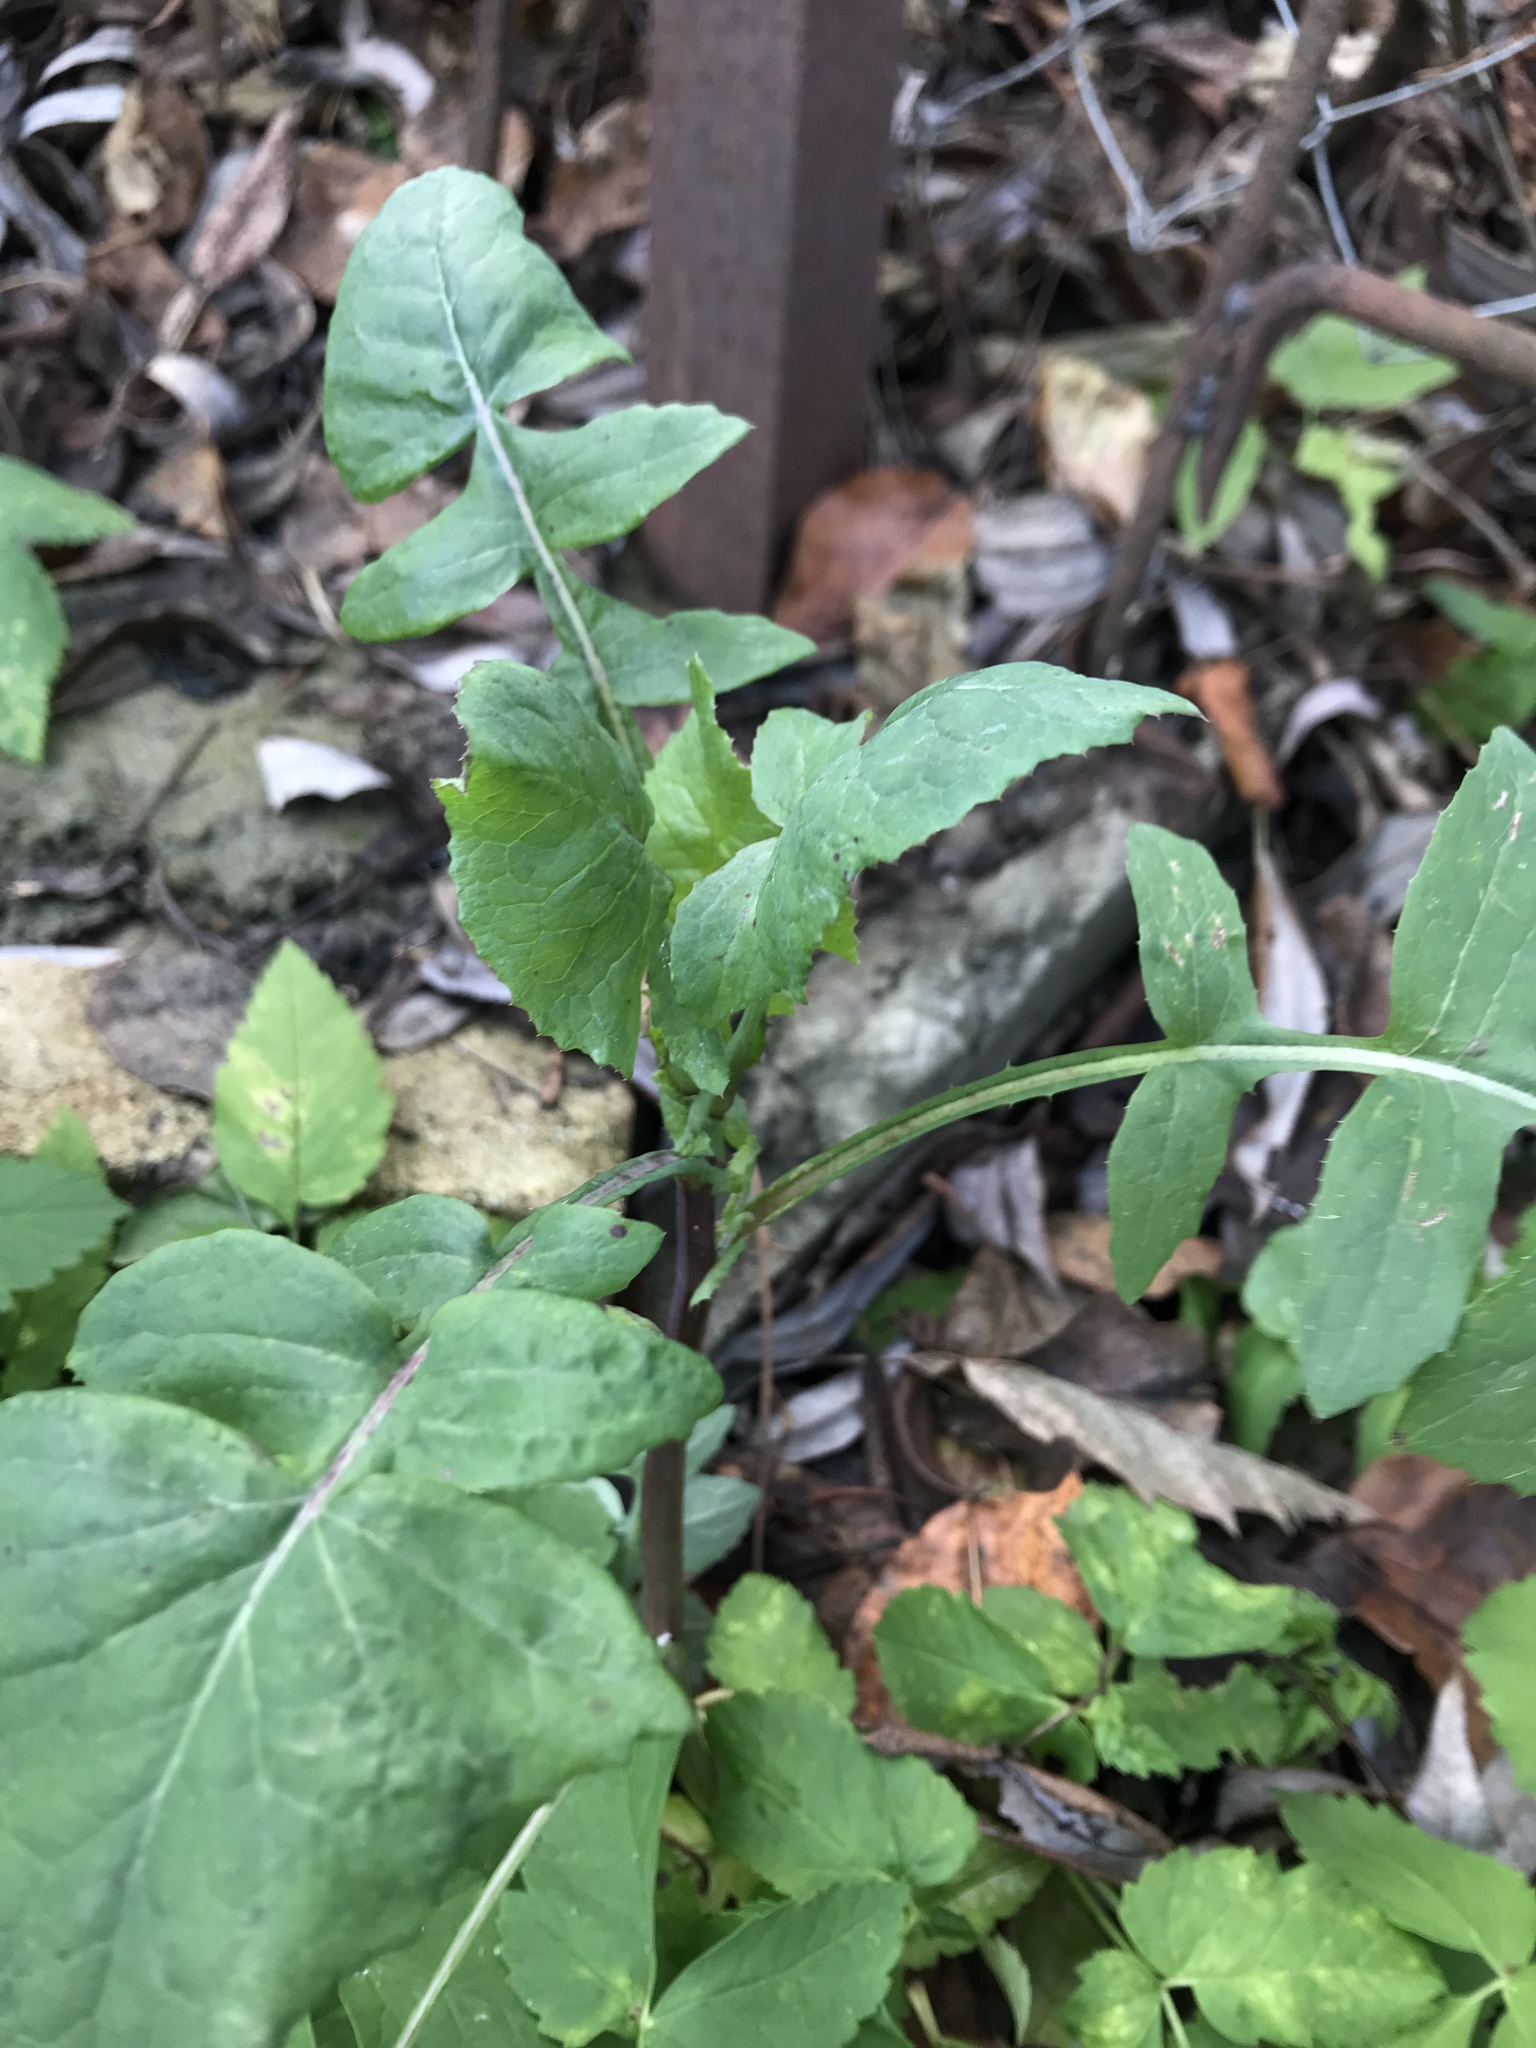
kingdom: Plantae
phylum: Tracheophyta
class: Magnoliopsida
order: Asterales
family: Asteraceae
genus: Sonchus
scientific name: Sonchus oleraceus
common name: Common sowthistle
